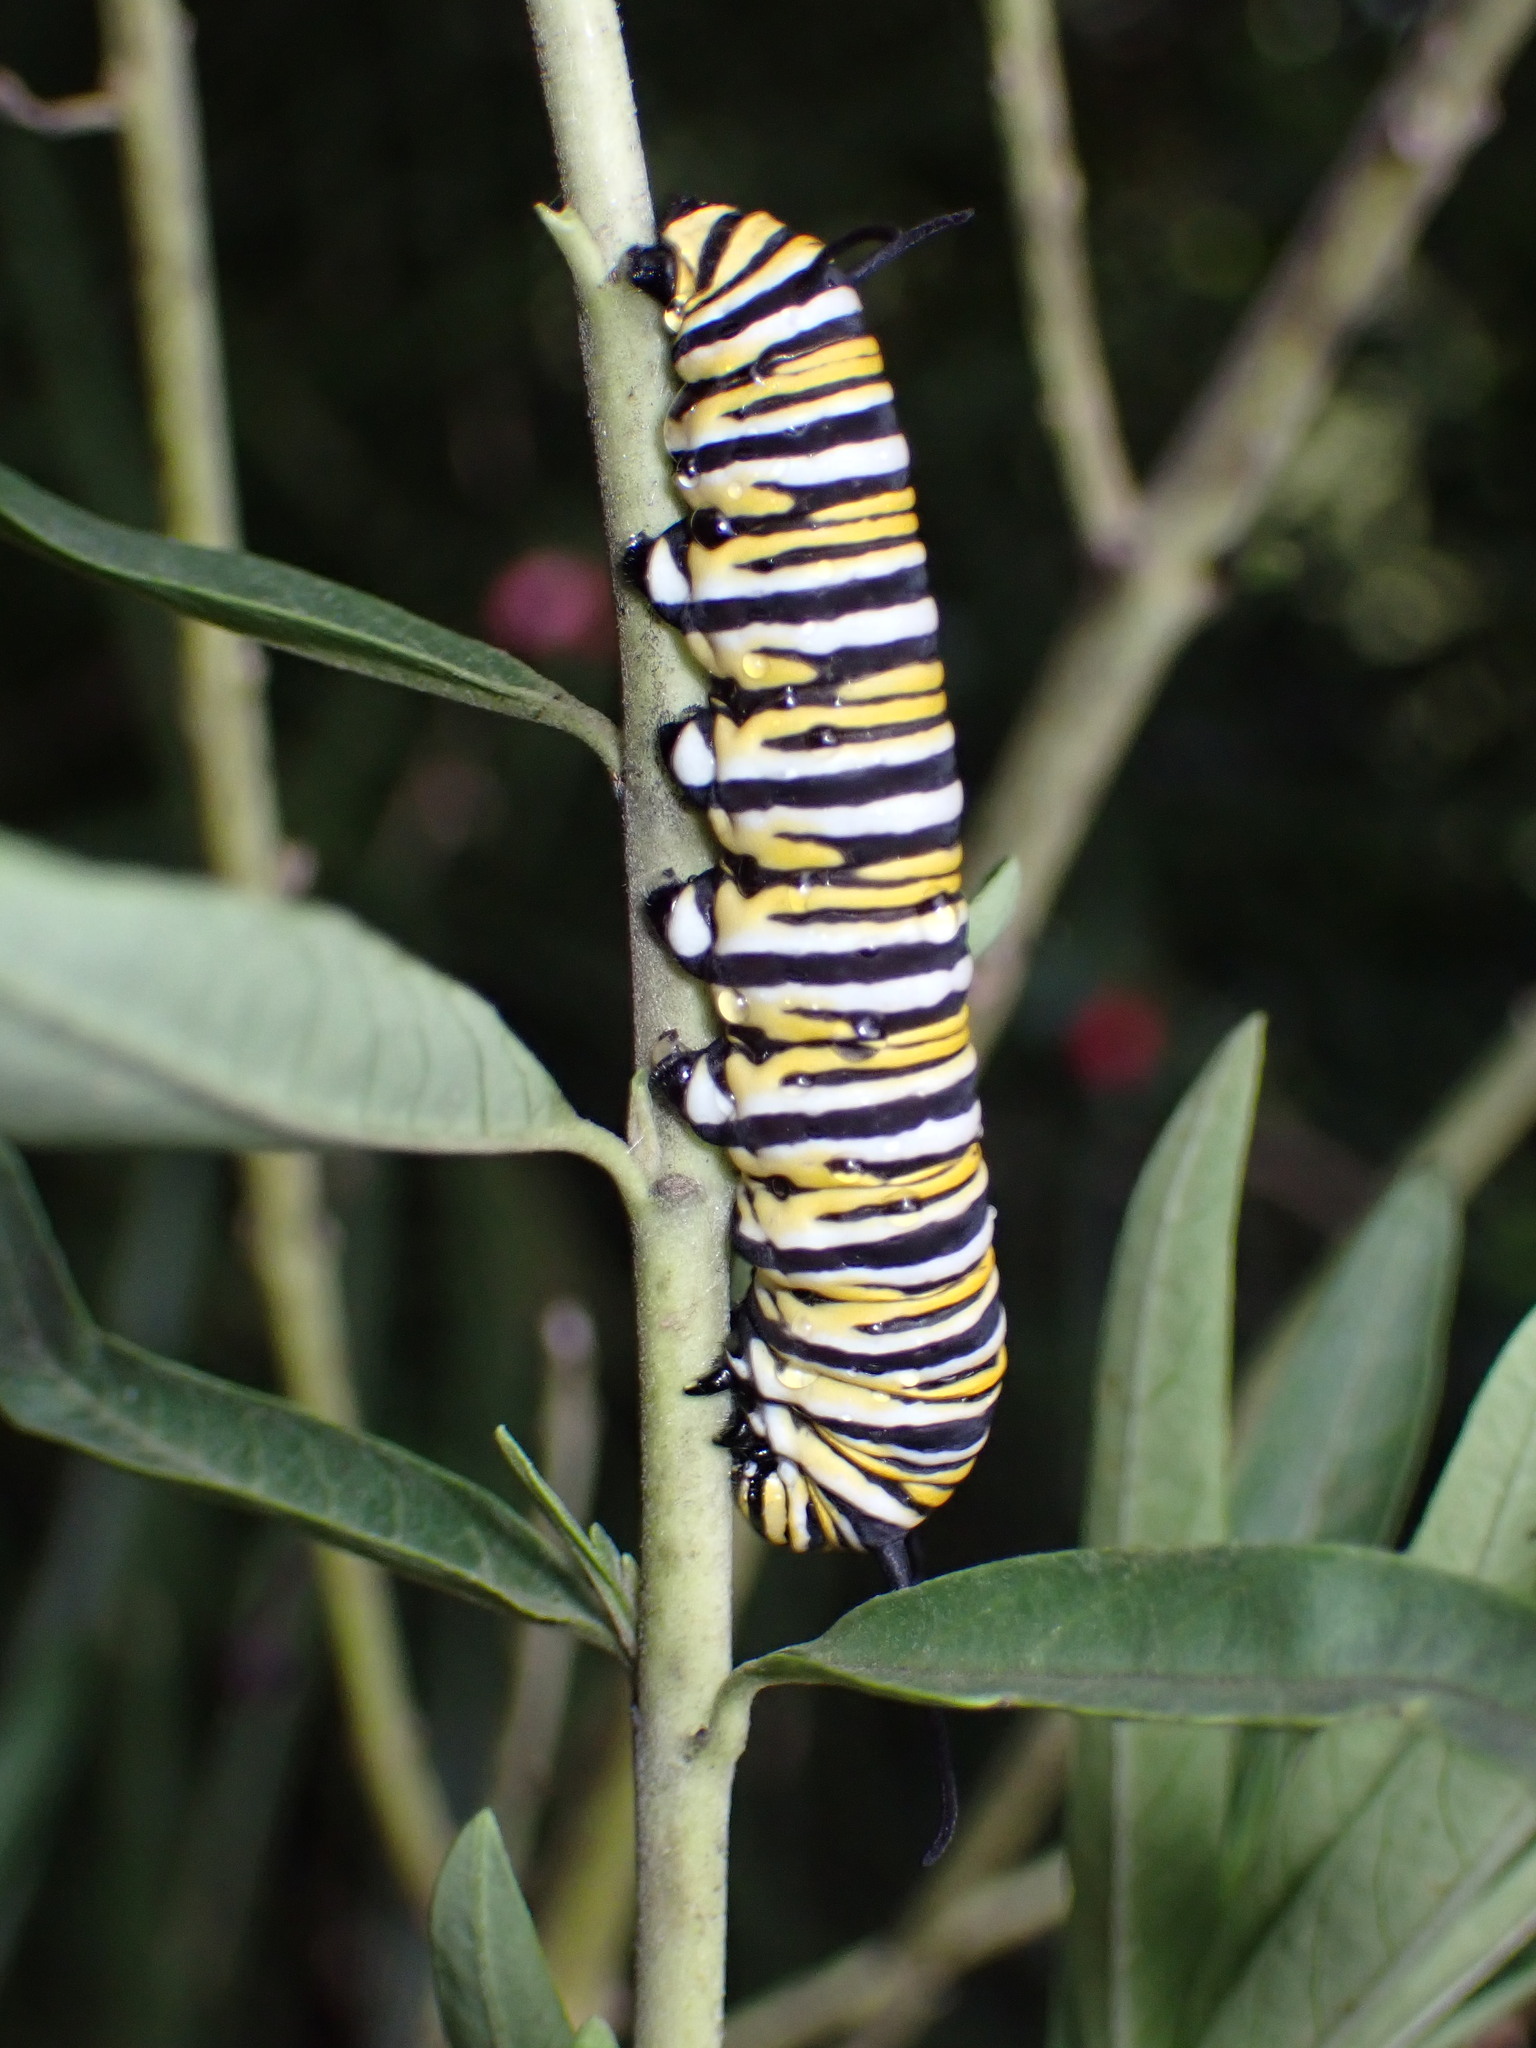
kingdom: Animalia
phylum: Arthropoda
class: Insecta
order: Lepidoptera
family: Nymphalidae
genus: Danaus
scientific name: Danaus plexippus
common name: Monarch
